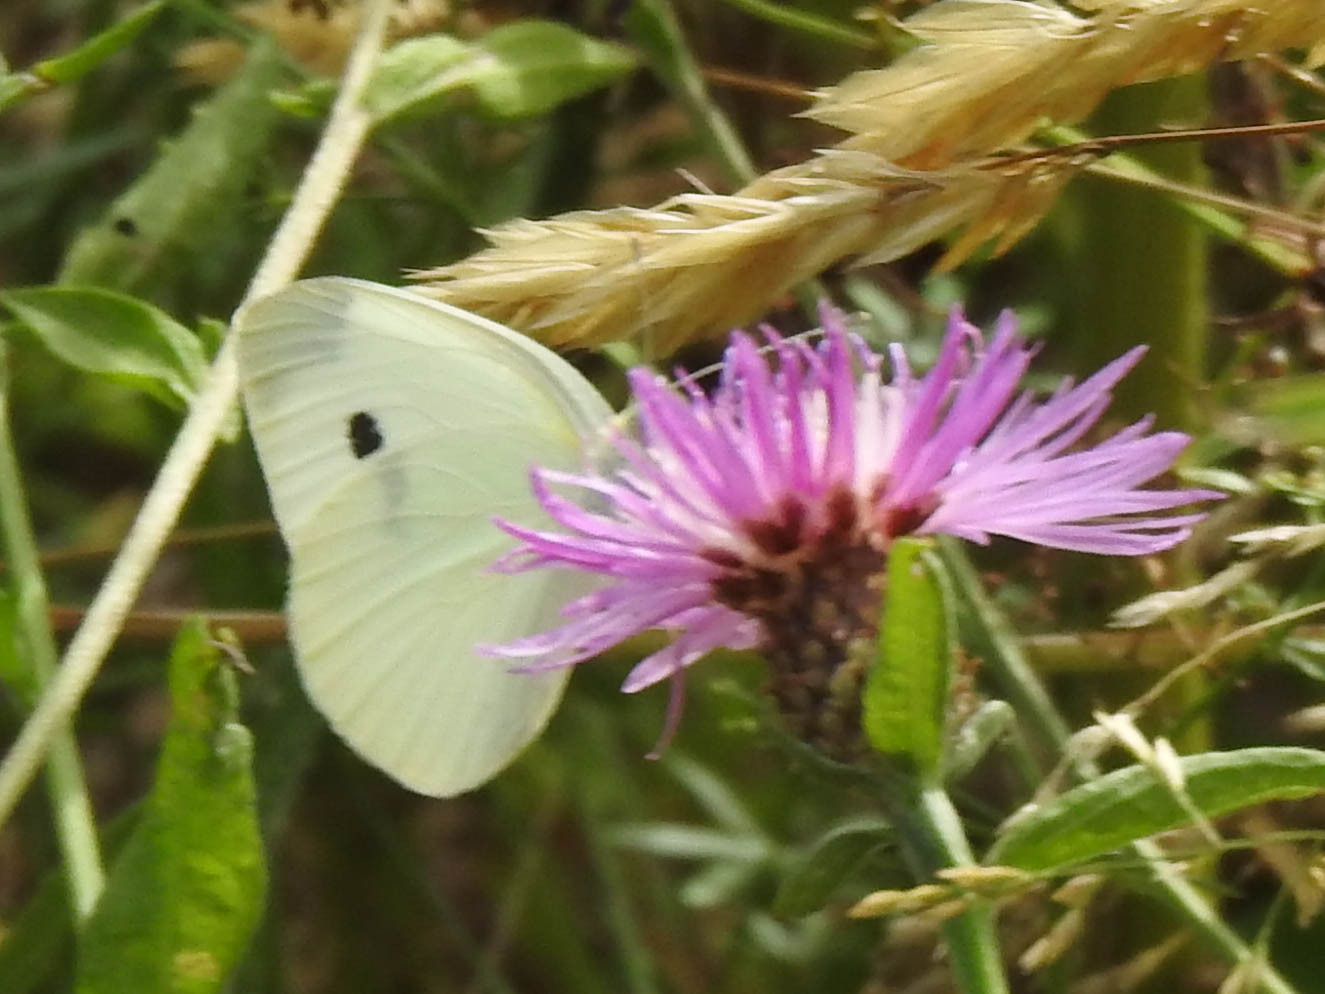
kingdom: Animalia
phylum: Arthropoda
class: Insecta
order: Lepidoptera
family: Pieridae
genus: Pieris
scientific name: Pieris rapae
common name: Small white
